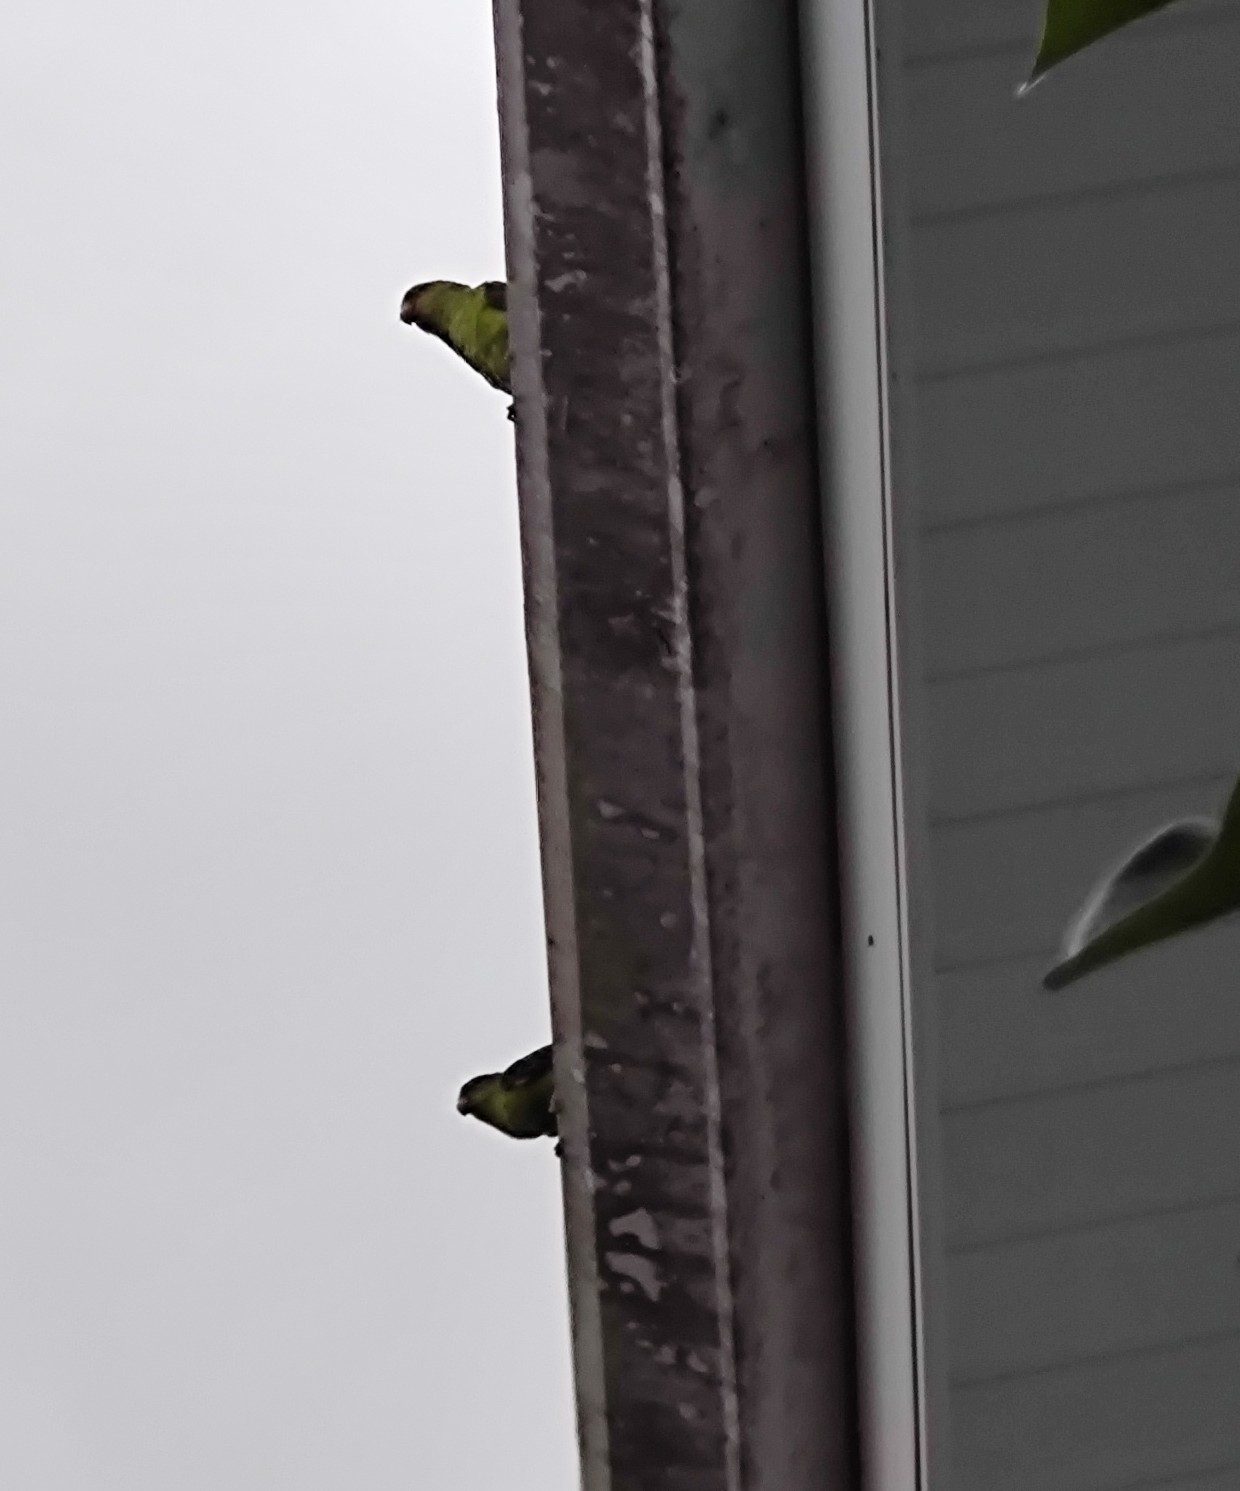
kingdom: Animalia
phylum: Chordata
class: Aves
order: Psittaciformes
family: Psittacidae
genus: Brotogeris
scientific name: Brotogeris tirica
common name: Plain parakeet
